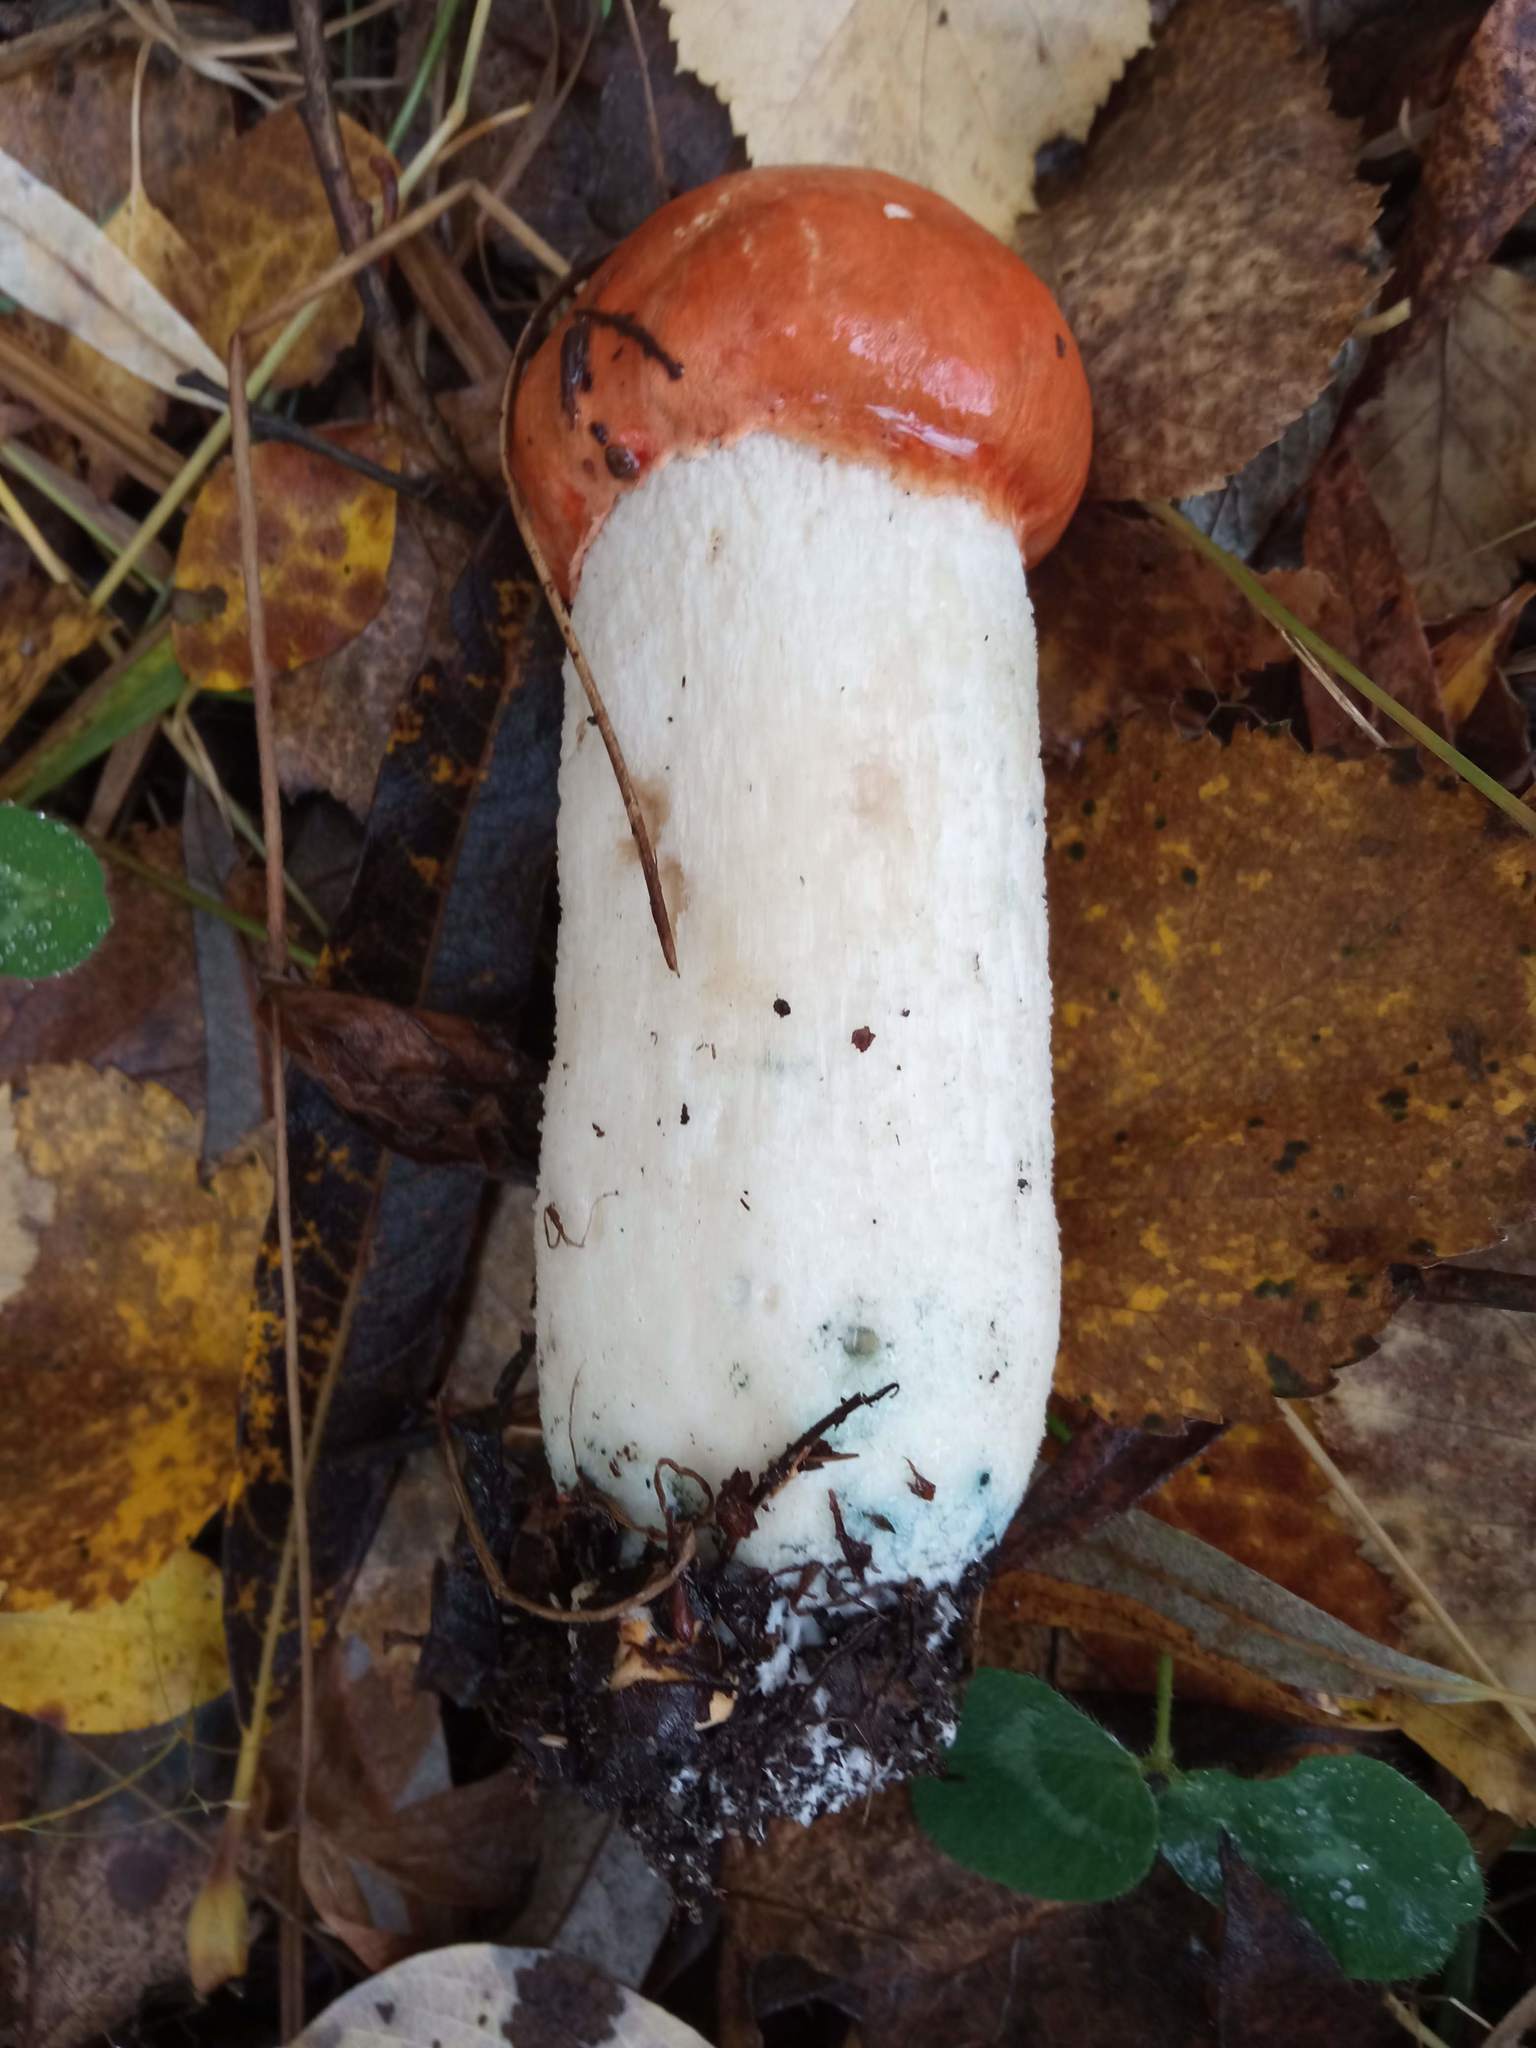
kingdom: Fungi
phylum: Basidiomycota
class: Agaricomycetes
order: Boletales
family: Boletaceae
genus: Leccinum
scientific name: Leccinum albostipitatum
